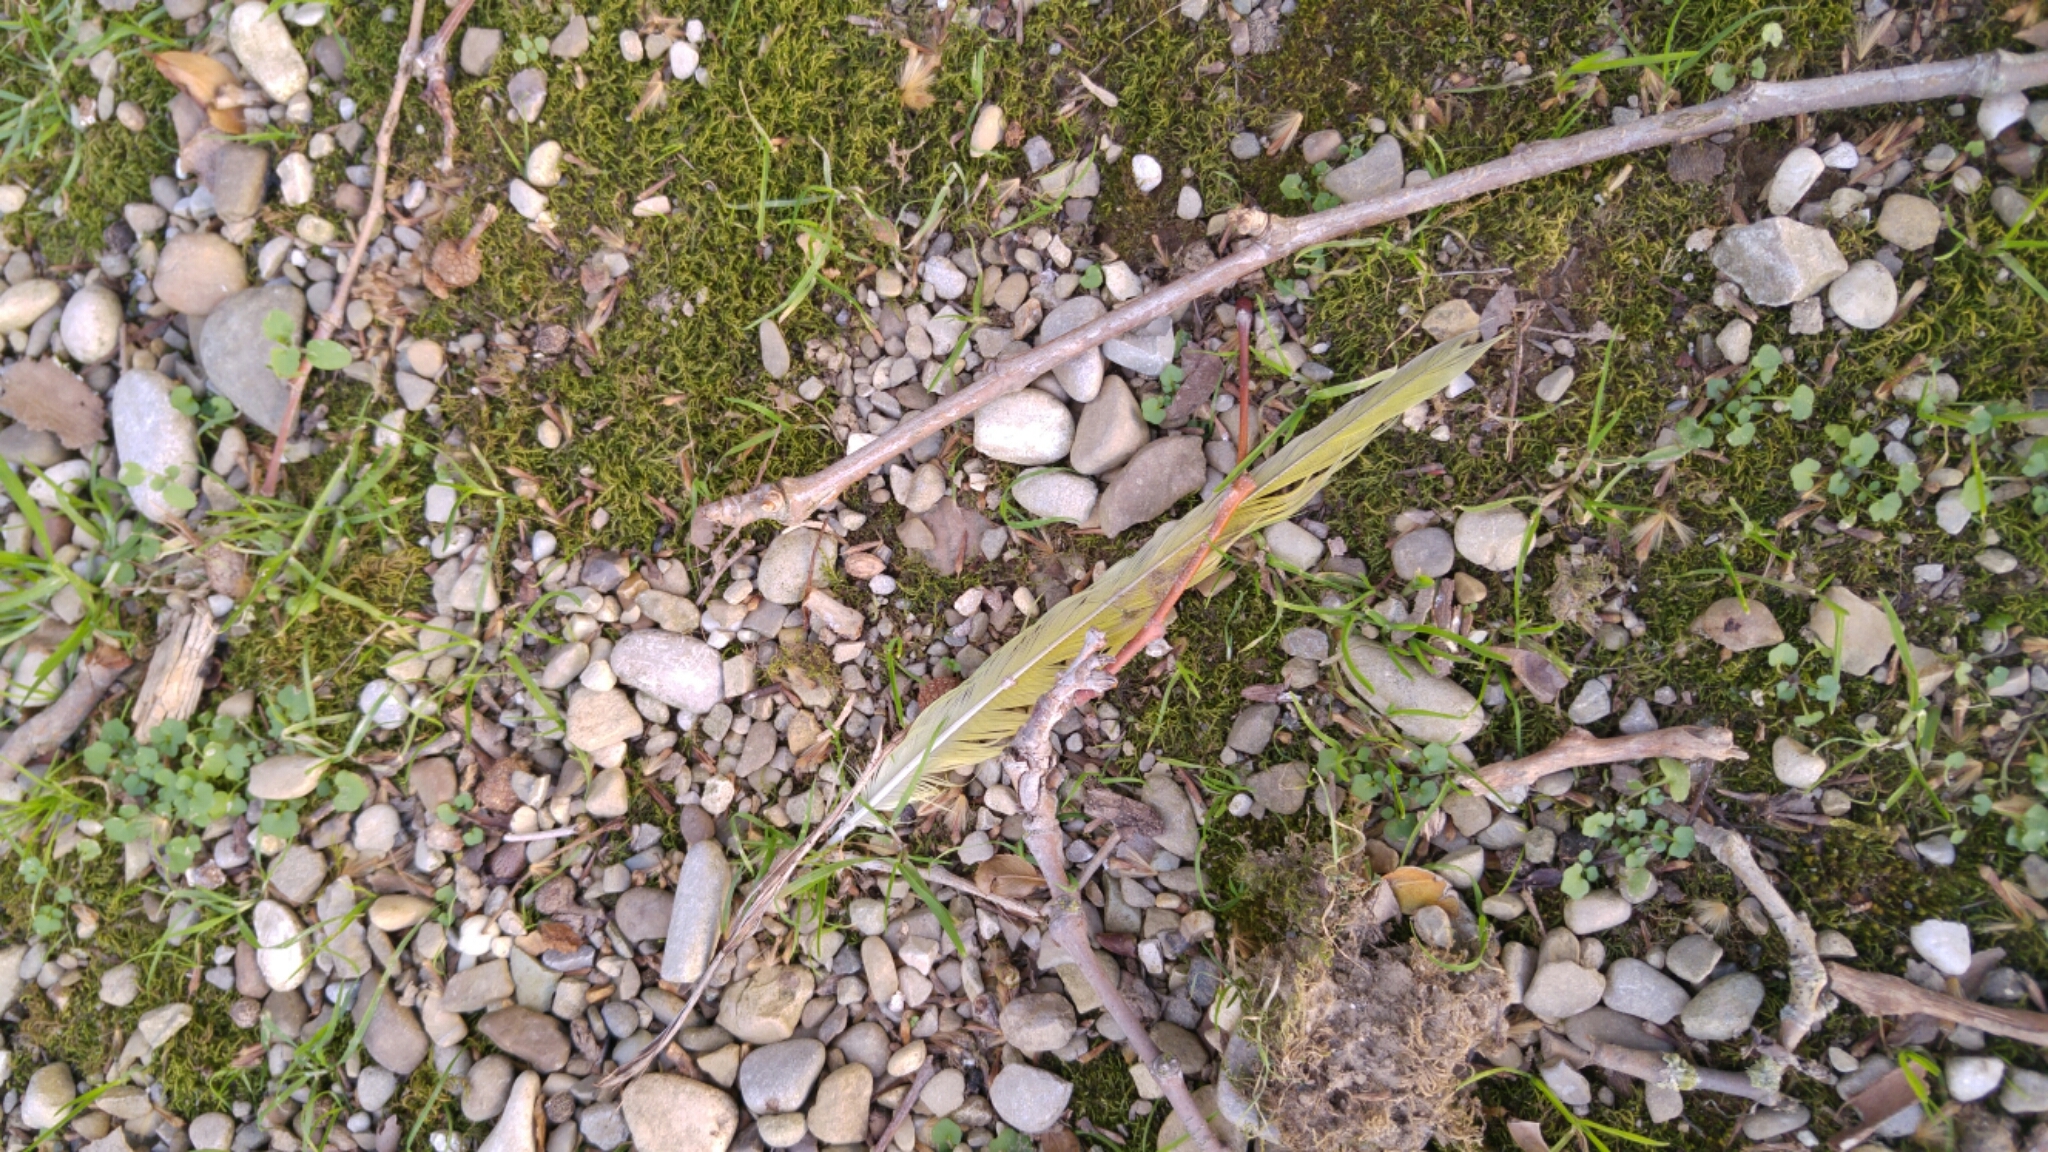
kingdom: Animalia
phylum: Chordata
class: Aves
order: Psittaciformes
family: Psittacidae
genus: Psittacula
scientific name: Psittacula krameri
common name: Rose-ringed parakeet
